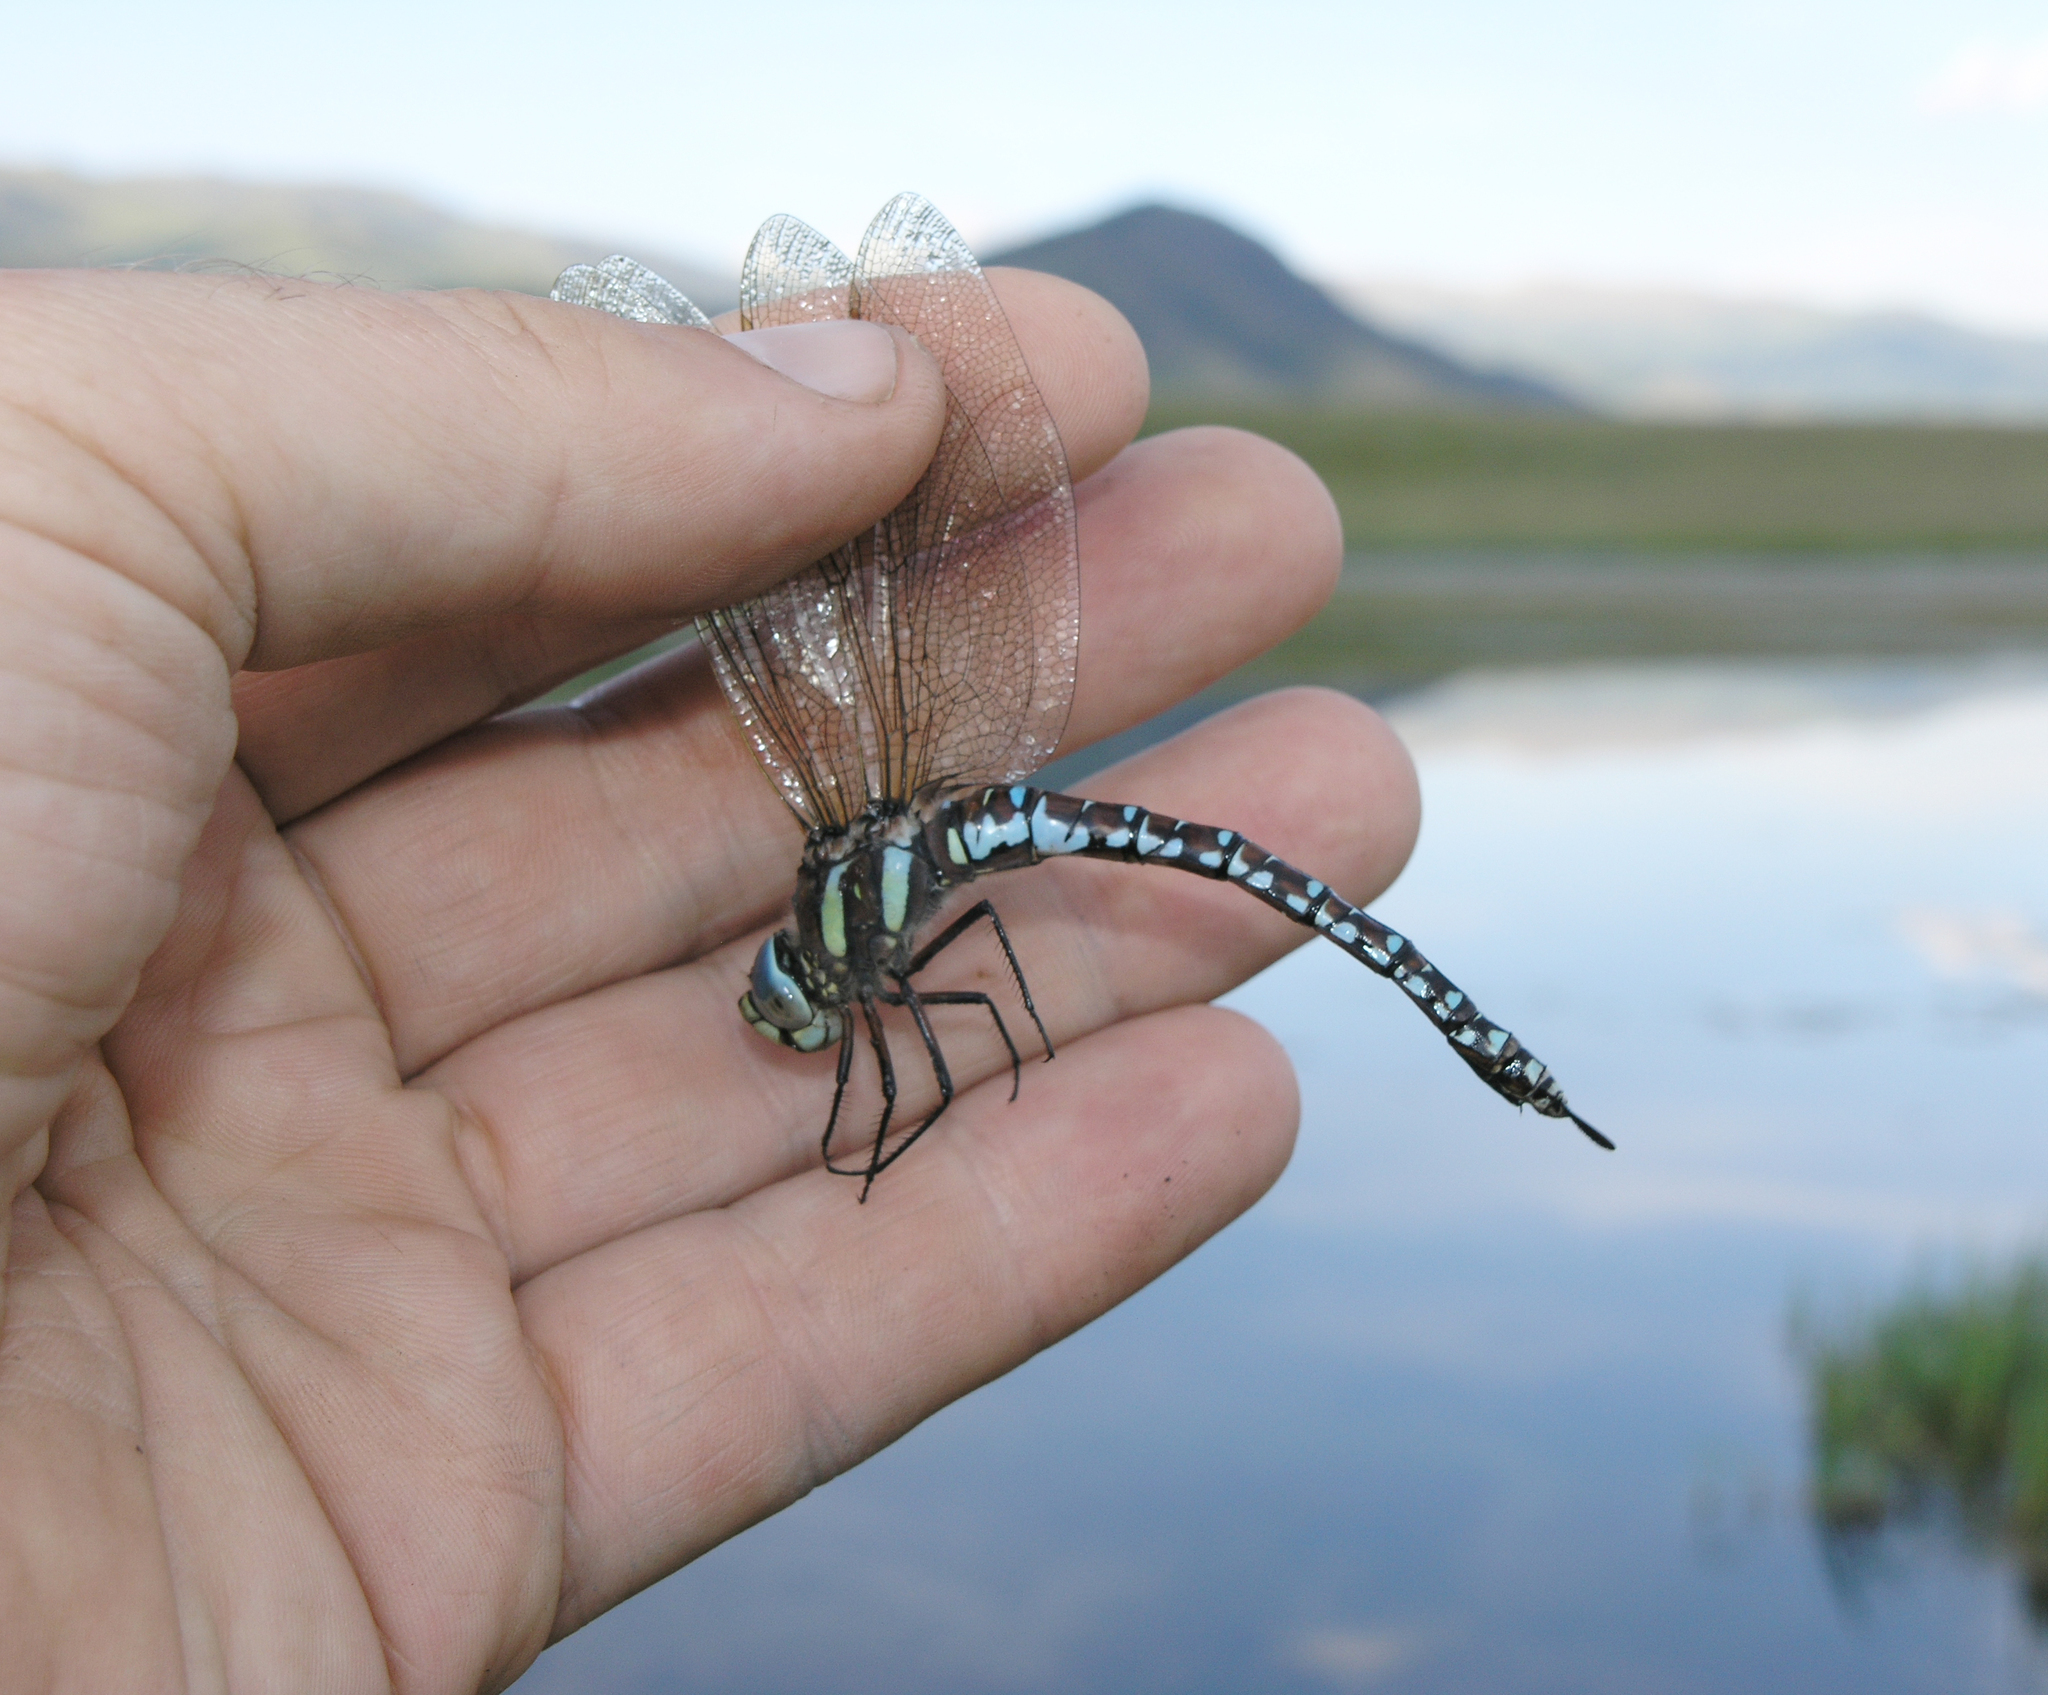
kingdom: Animalia
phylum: Arthropoda
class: Insecta
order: Odonata
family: Aeshnidae
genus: Aeshna
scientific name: Aeshna juncea
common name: Moorland hawker
